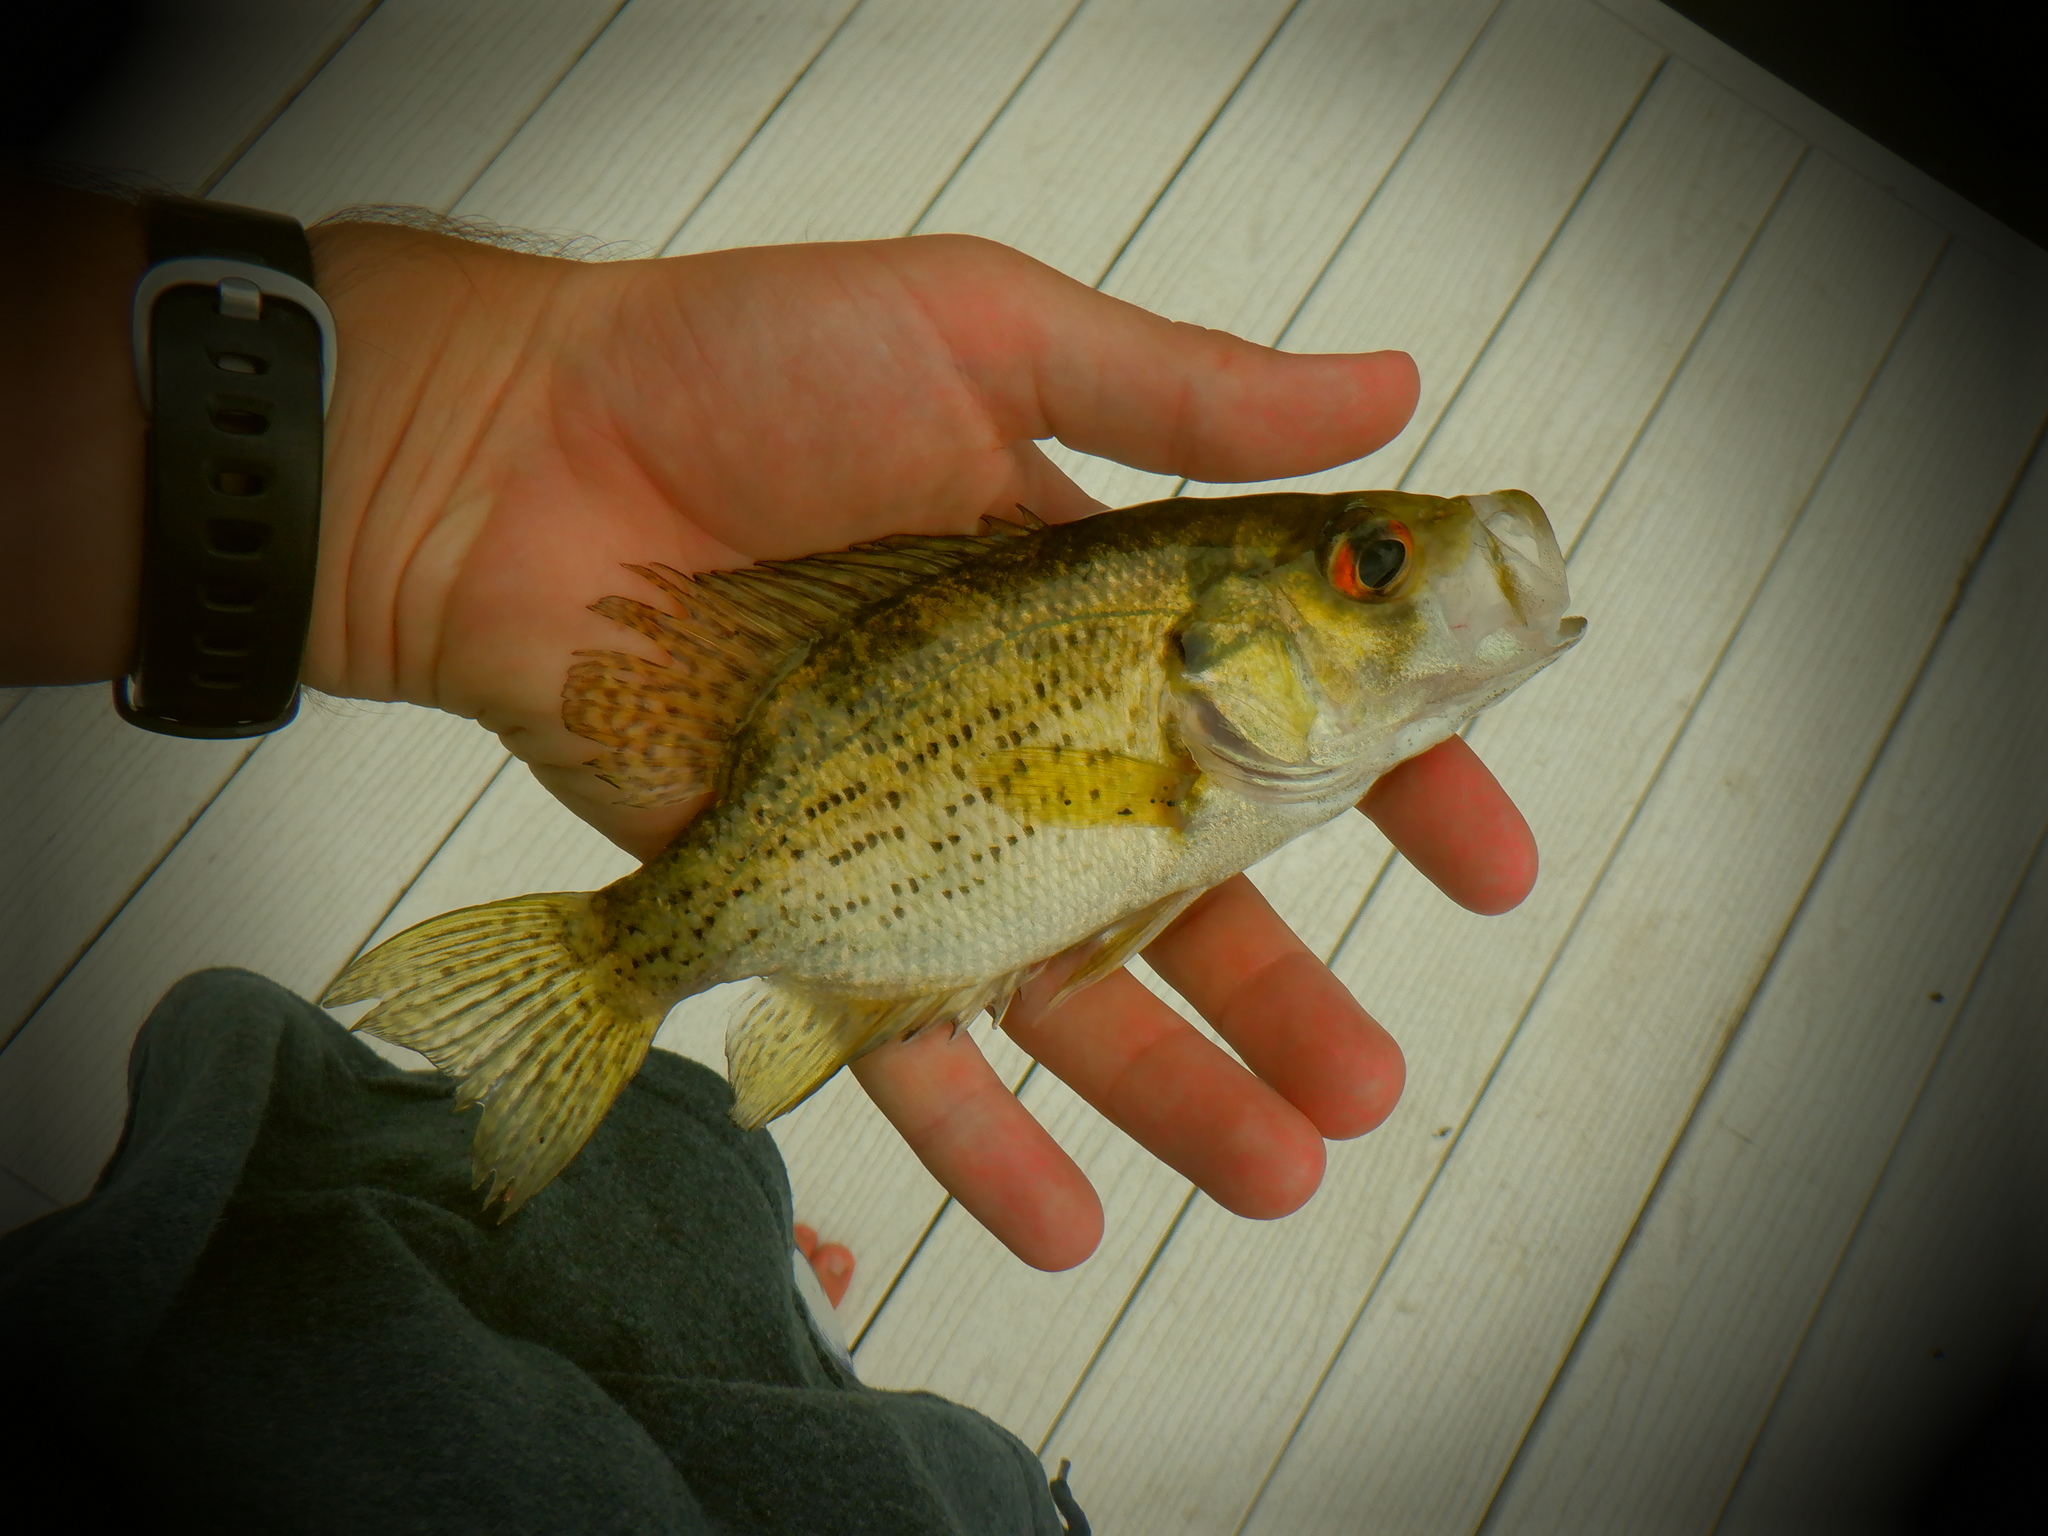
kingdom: Animalia
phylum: Chordata
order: Perciformes
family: Centrarchidae
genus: Ambloplites
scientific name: Ambloplites rupestris
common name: Rock bass
